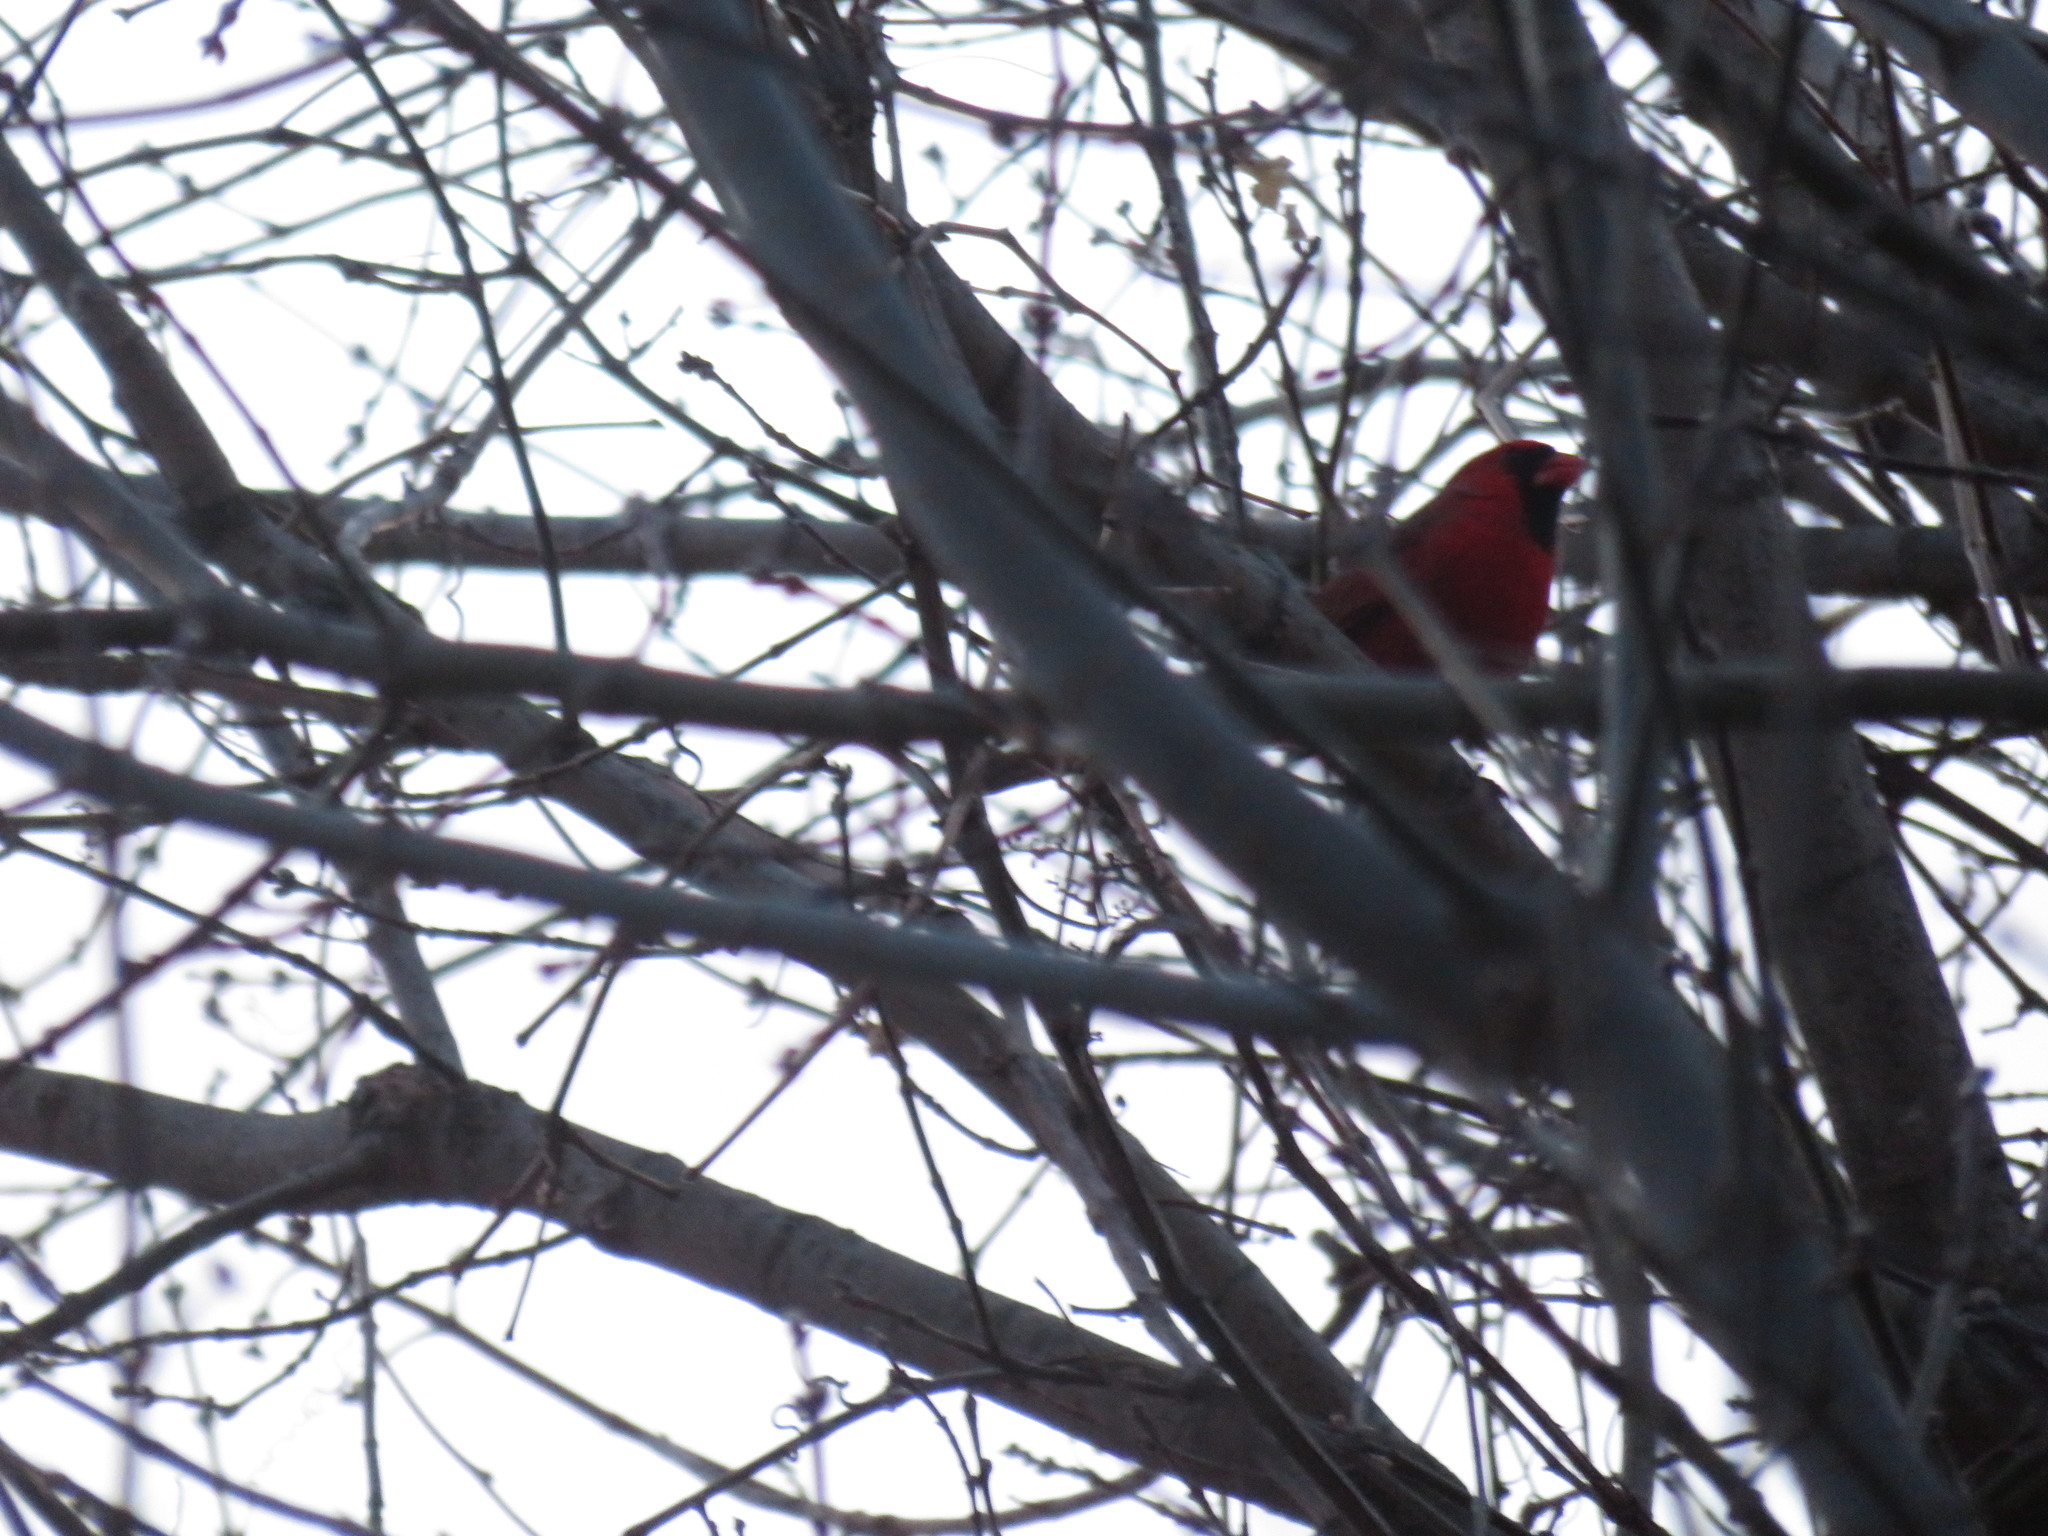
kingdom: Animalia
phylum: Chordata
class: Aves
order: Passeriformes
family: Cardinalidae
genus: Cardinalis
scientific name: Cardinalis cardinalis
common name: Northern cardinal
